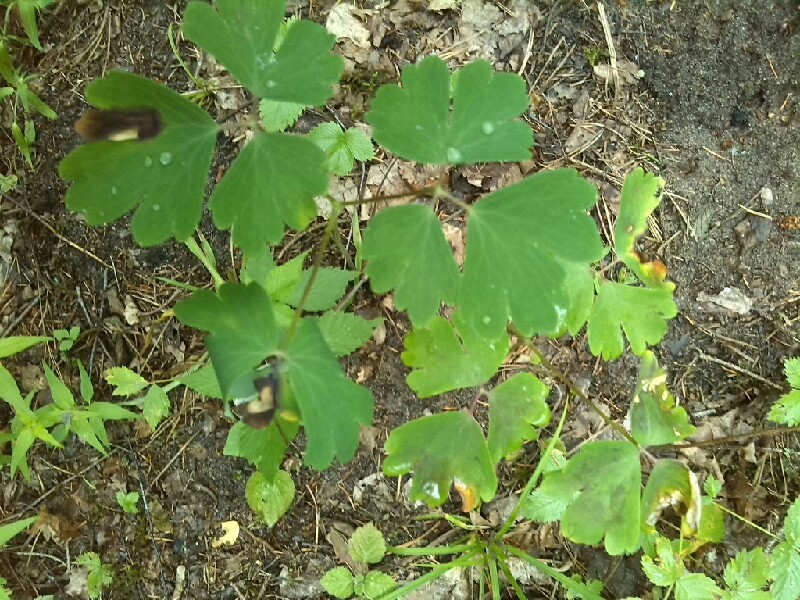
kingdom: Plantae
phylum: Tracheophyta
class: Magnoliopsida
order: Ranunculales
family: Ranunculaceae
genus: Aquilegia
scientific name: Aquilegia vulgaris
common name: Columbine
